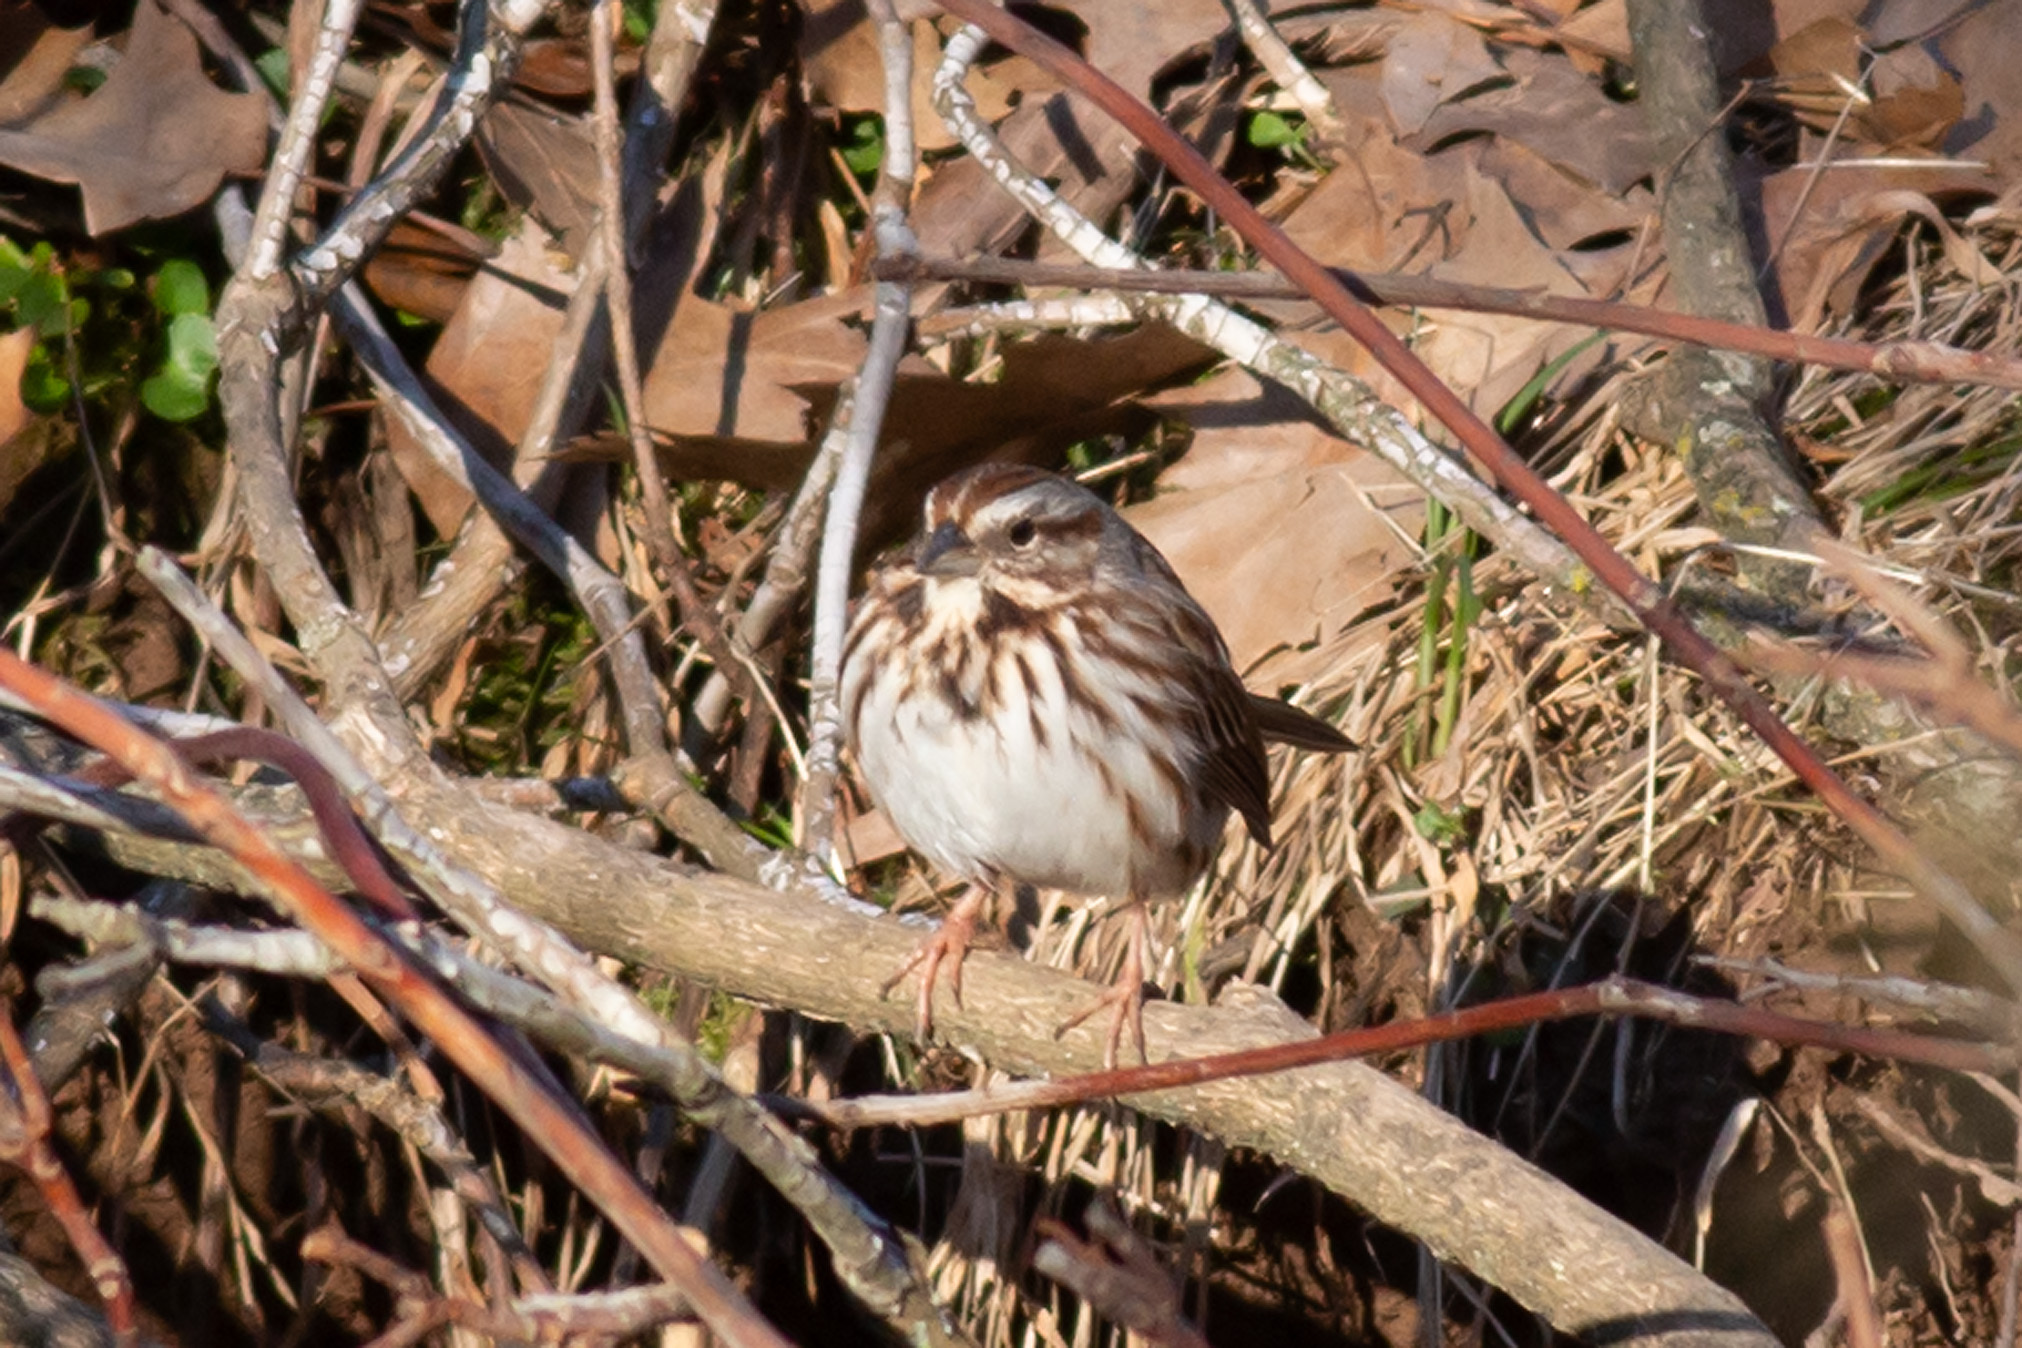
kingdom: Animalia
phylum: Chordata
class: Aves
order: Passeriformes
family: Passerellidae
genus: Melospiza
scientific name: Melospiza melodia
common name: Song sparrow
